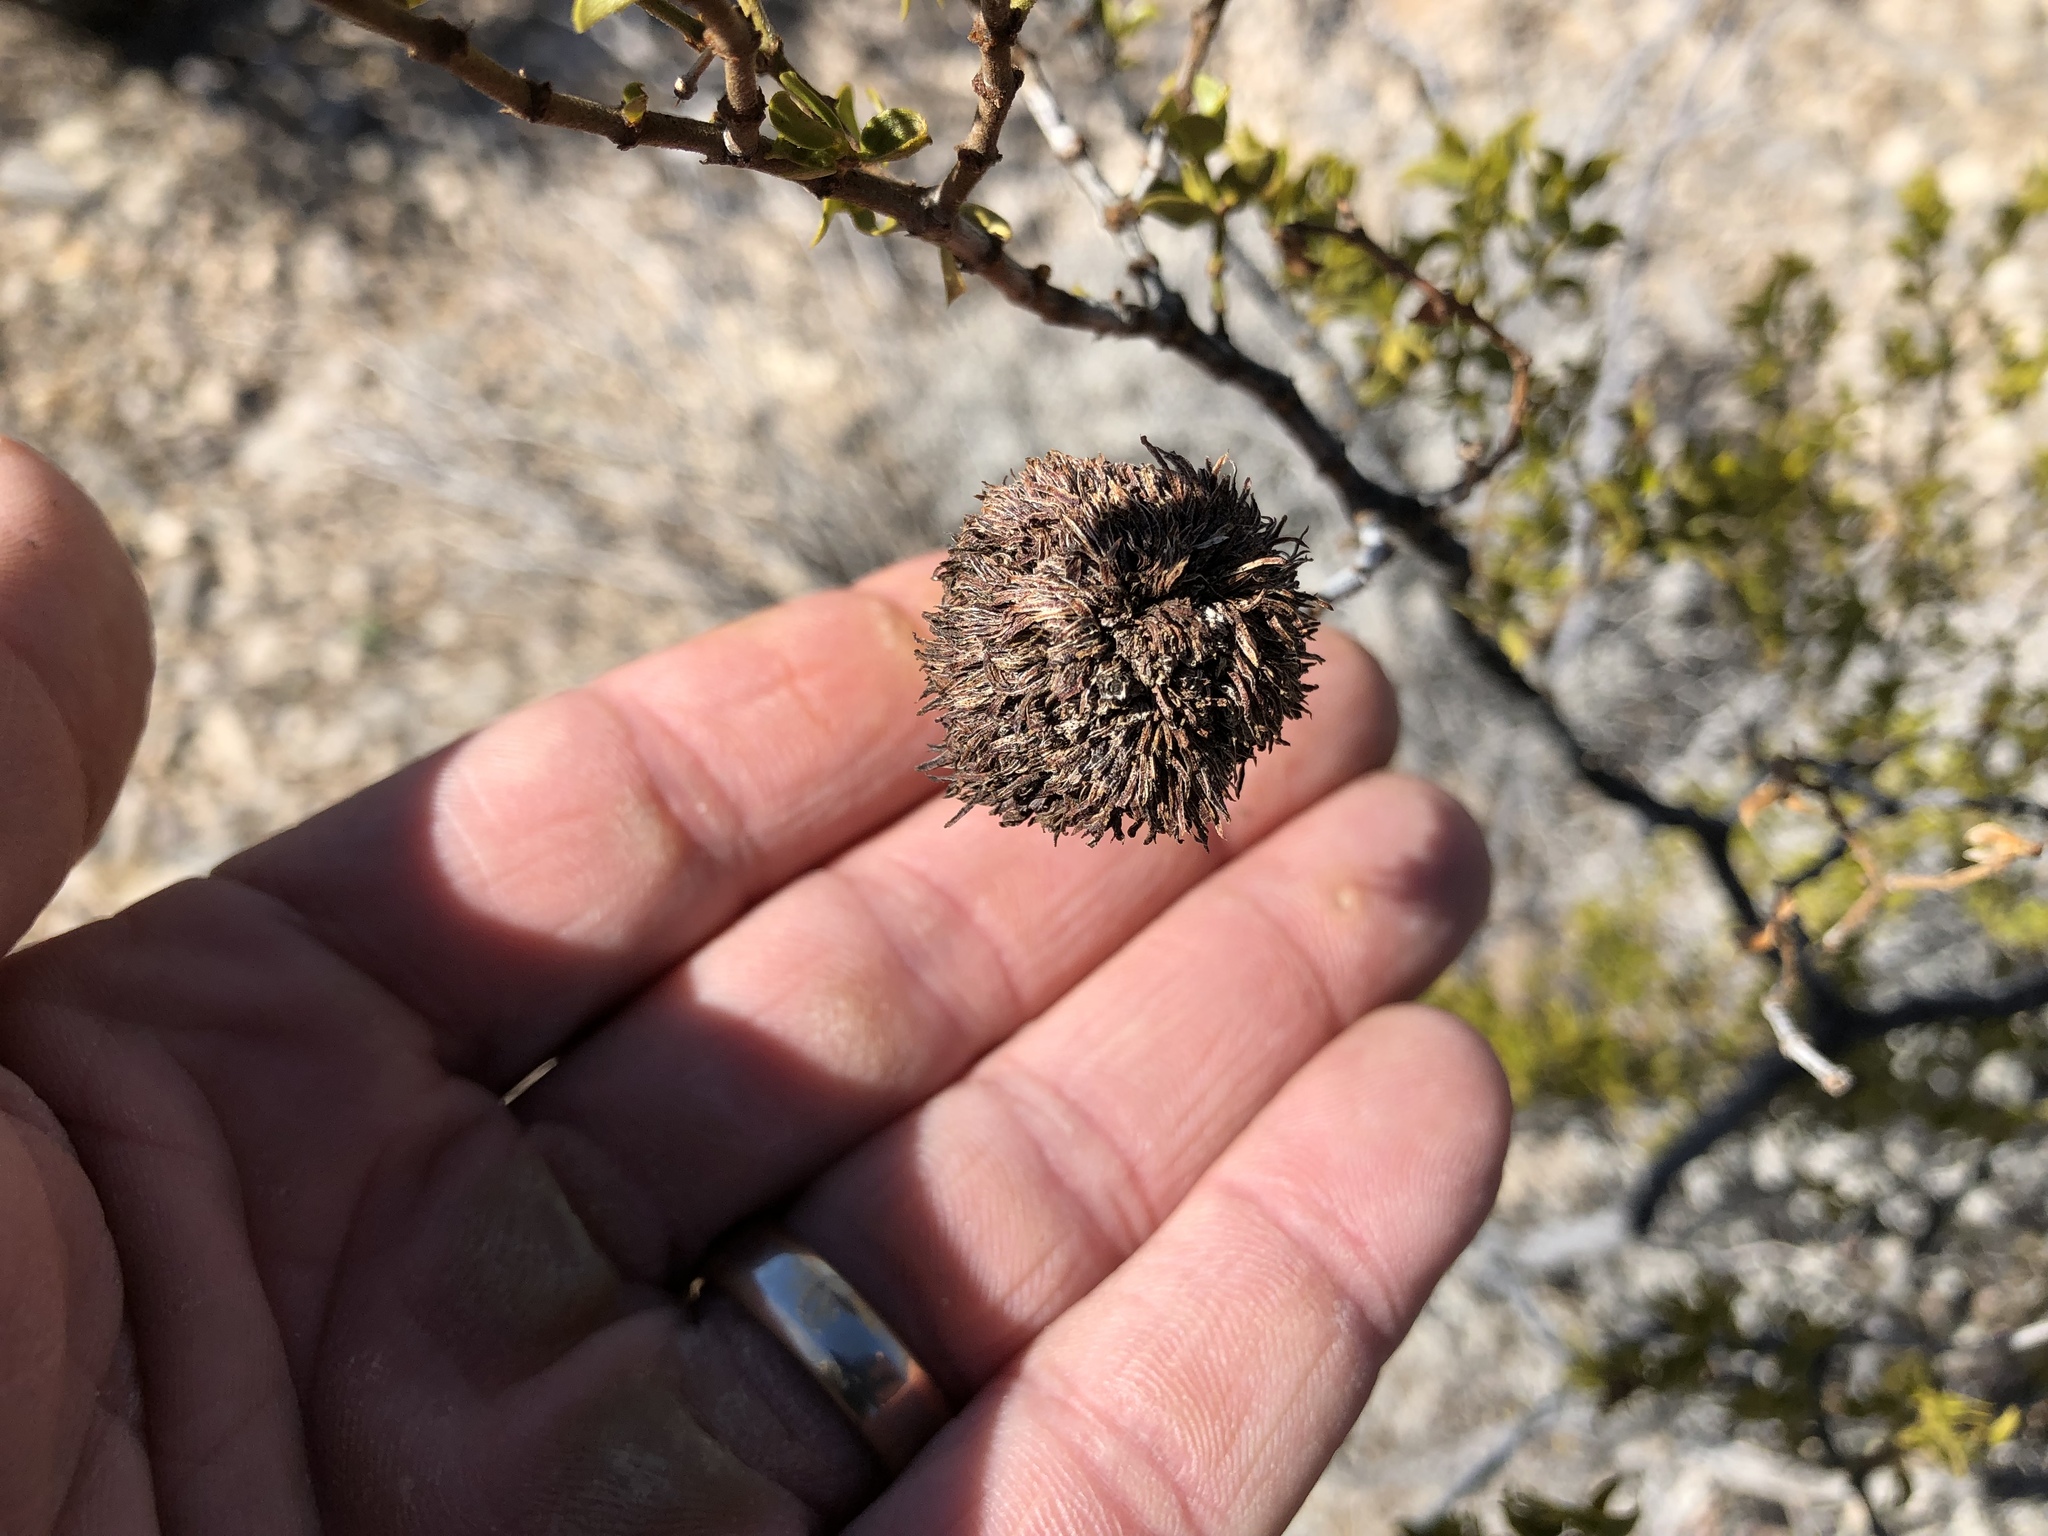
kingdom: Animalia
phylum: Arthropoda
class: Insecta
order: Diptera
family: Cecidomyiidae
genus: Asphondylia
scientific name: Asphondylia auripila
